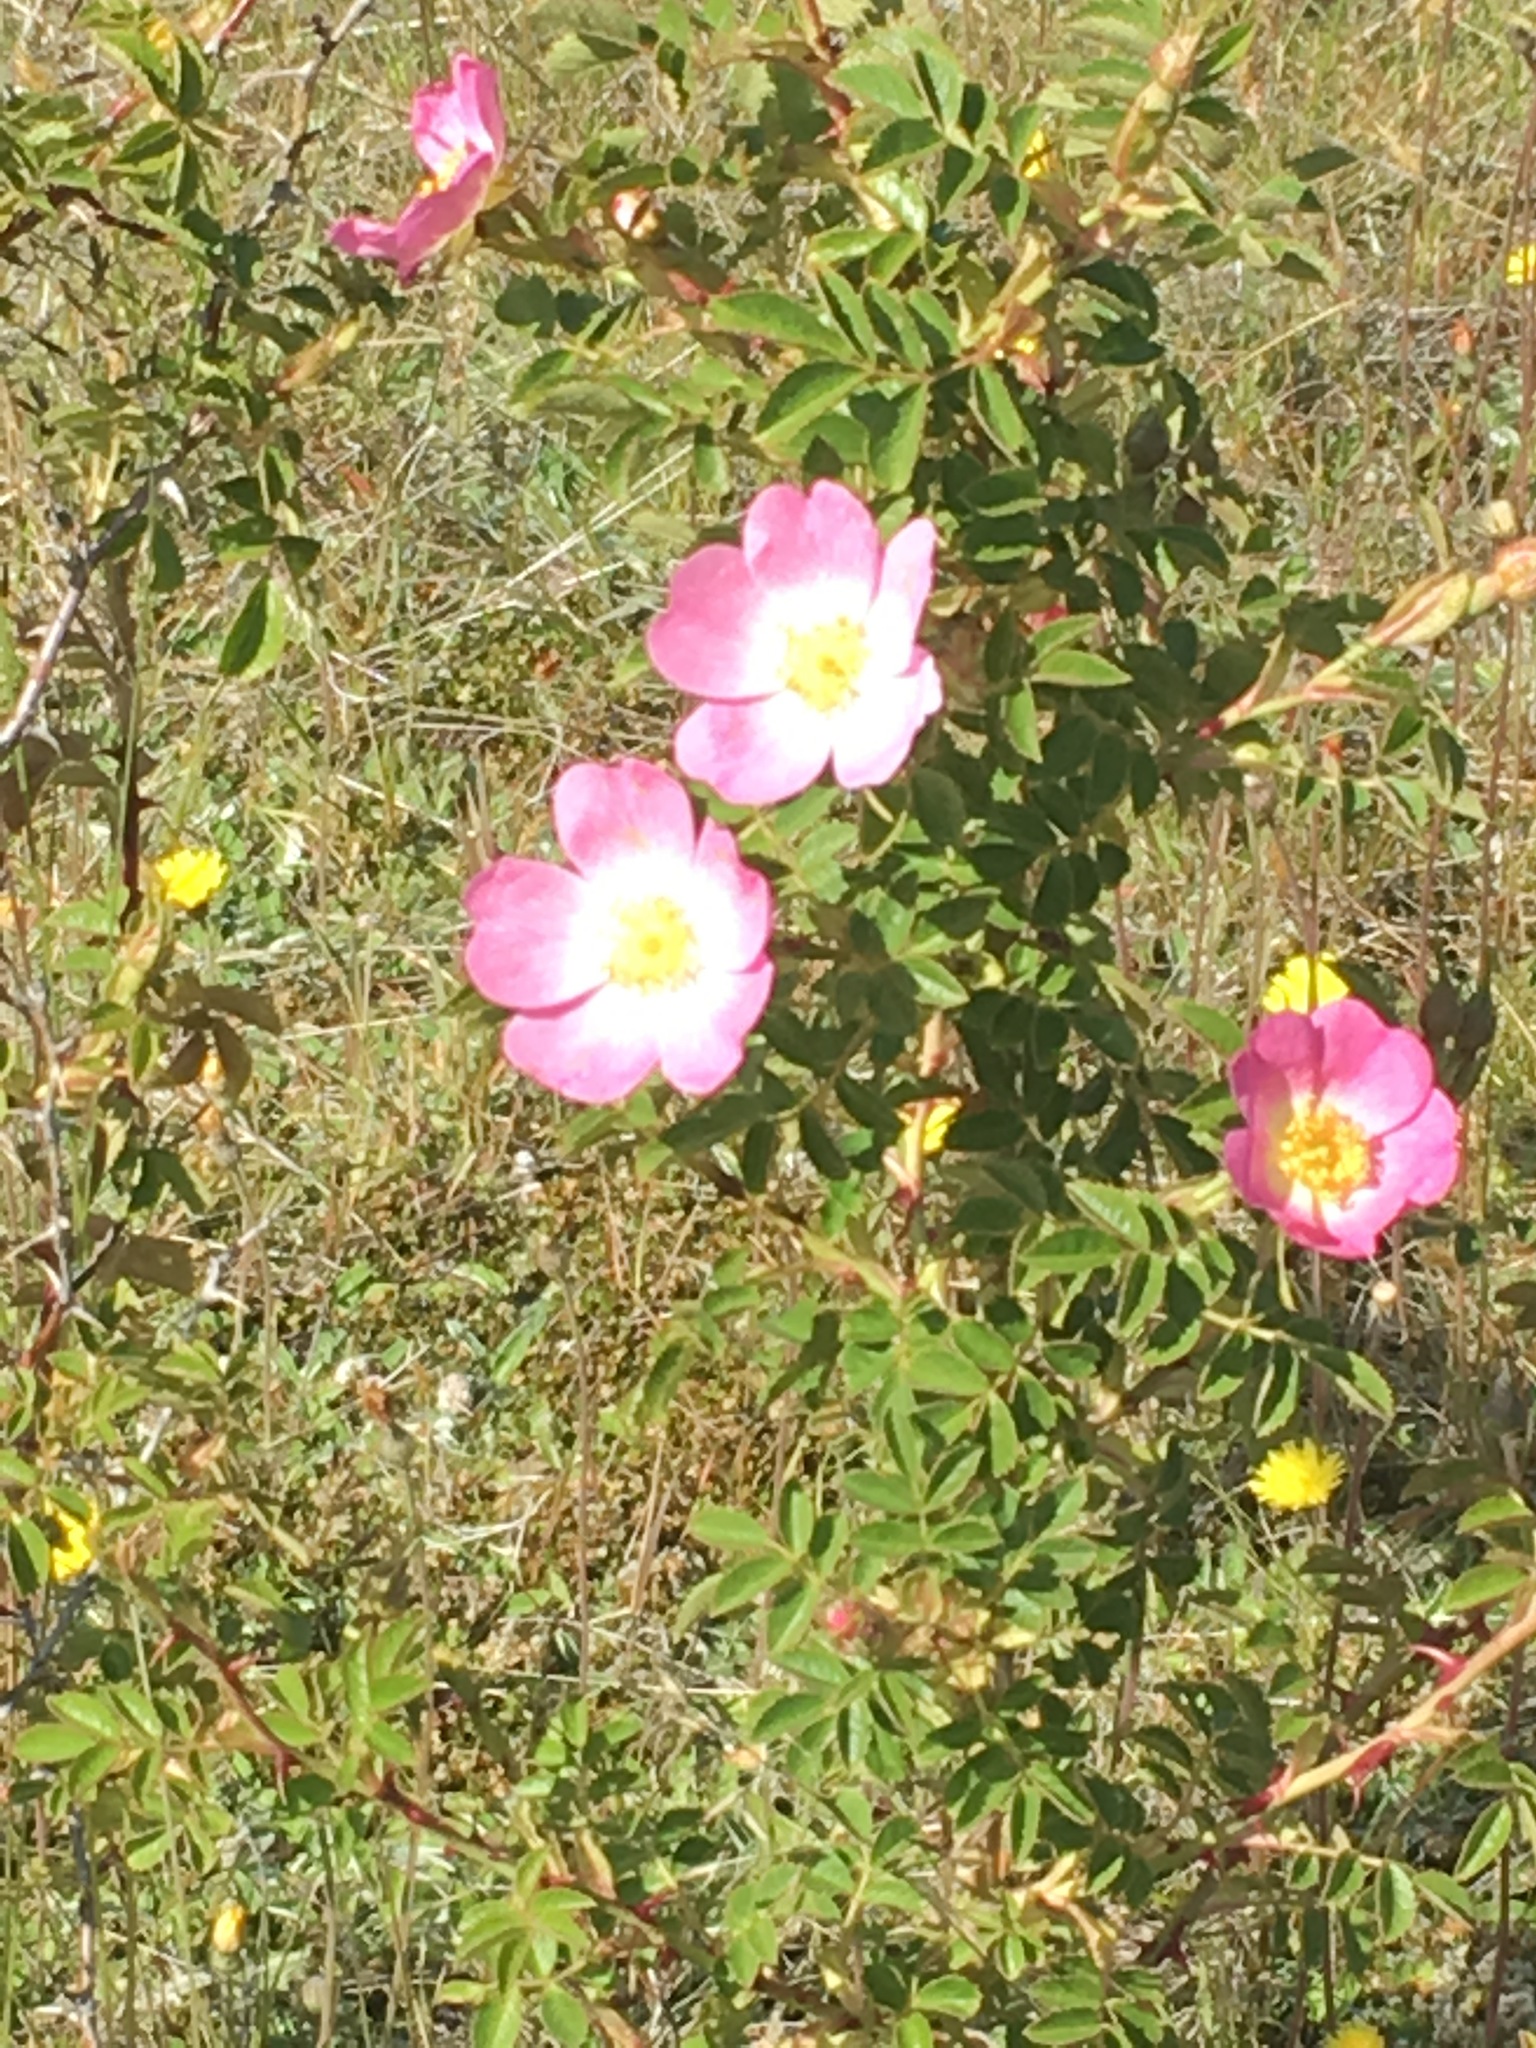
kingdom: Plantae
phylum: Tracheophyta
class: Magnoliopsida
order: Rosales
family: Rosaceae
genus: Rosa
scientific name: Rosa
